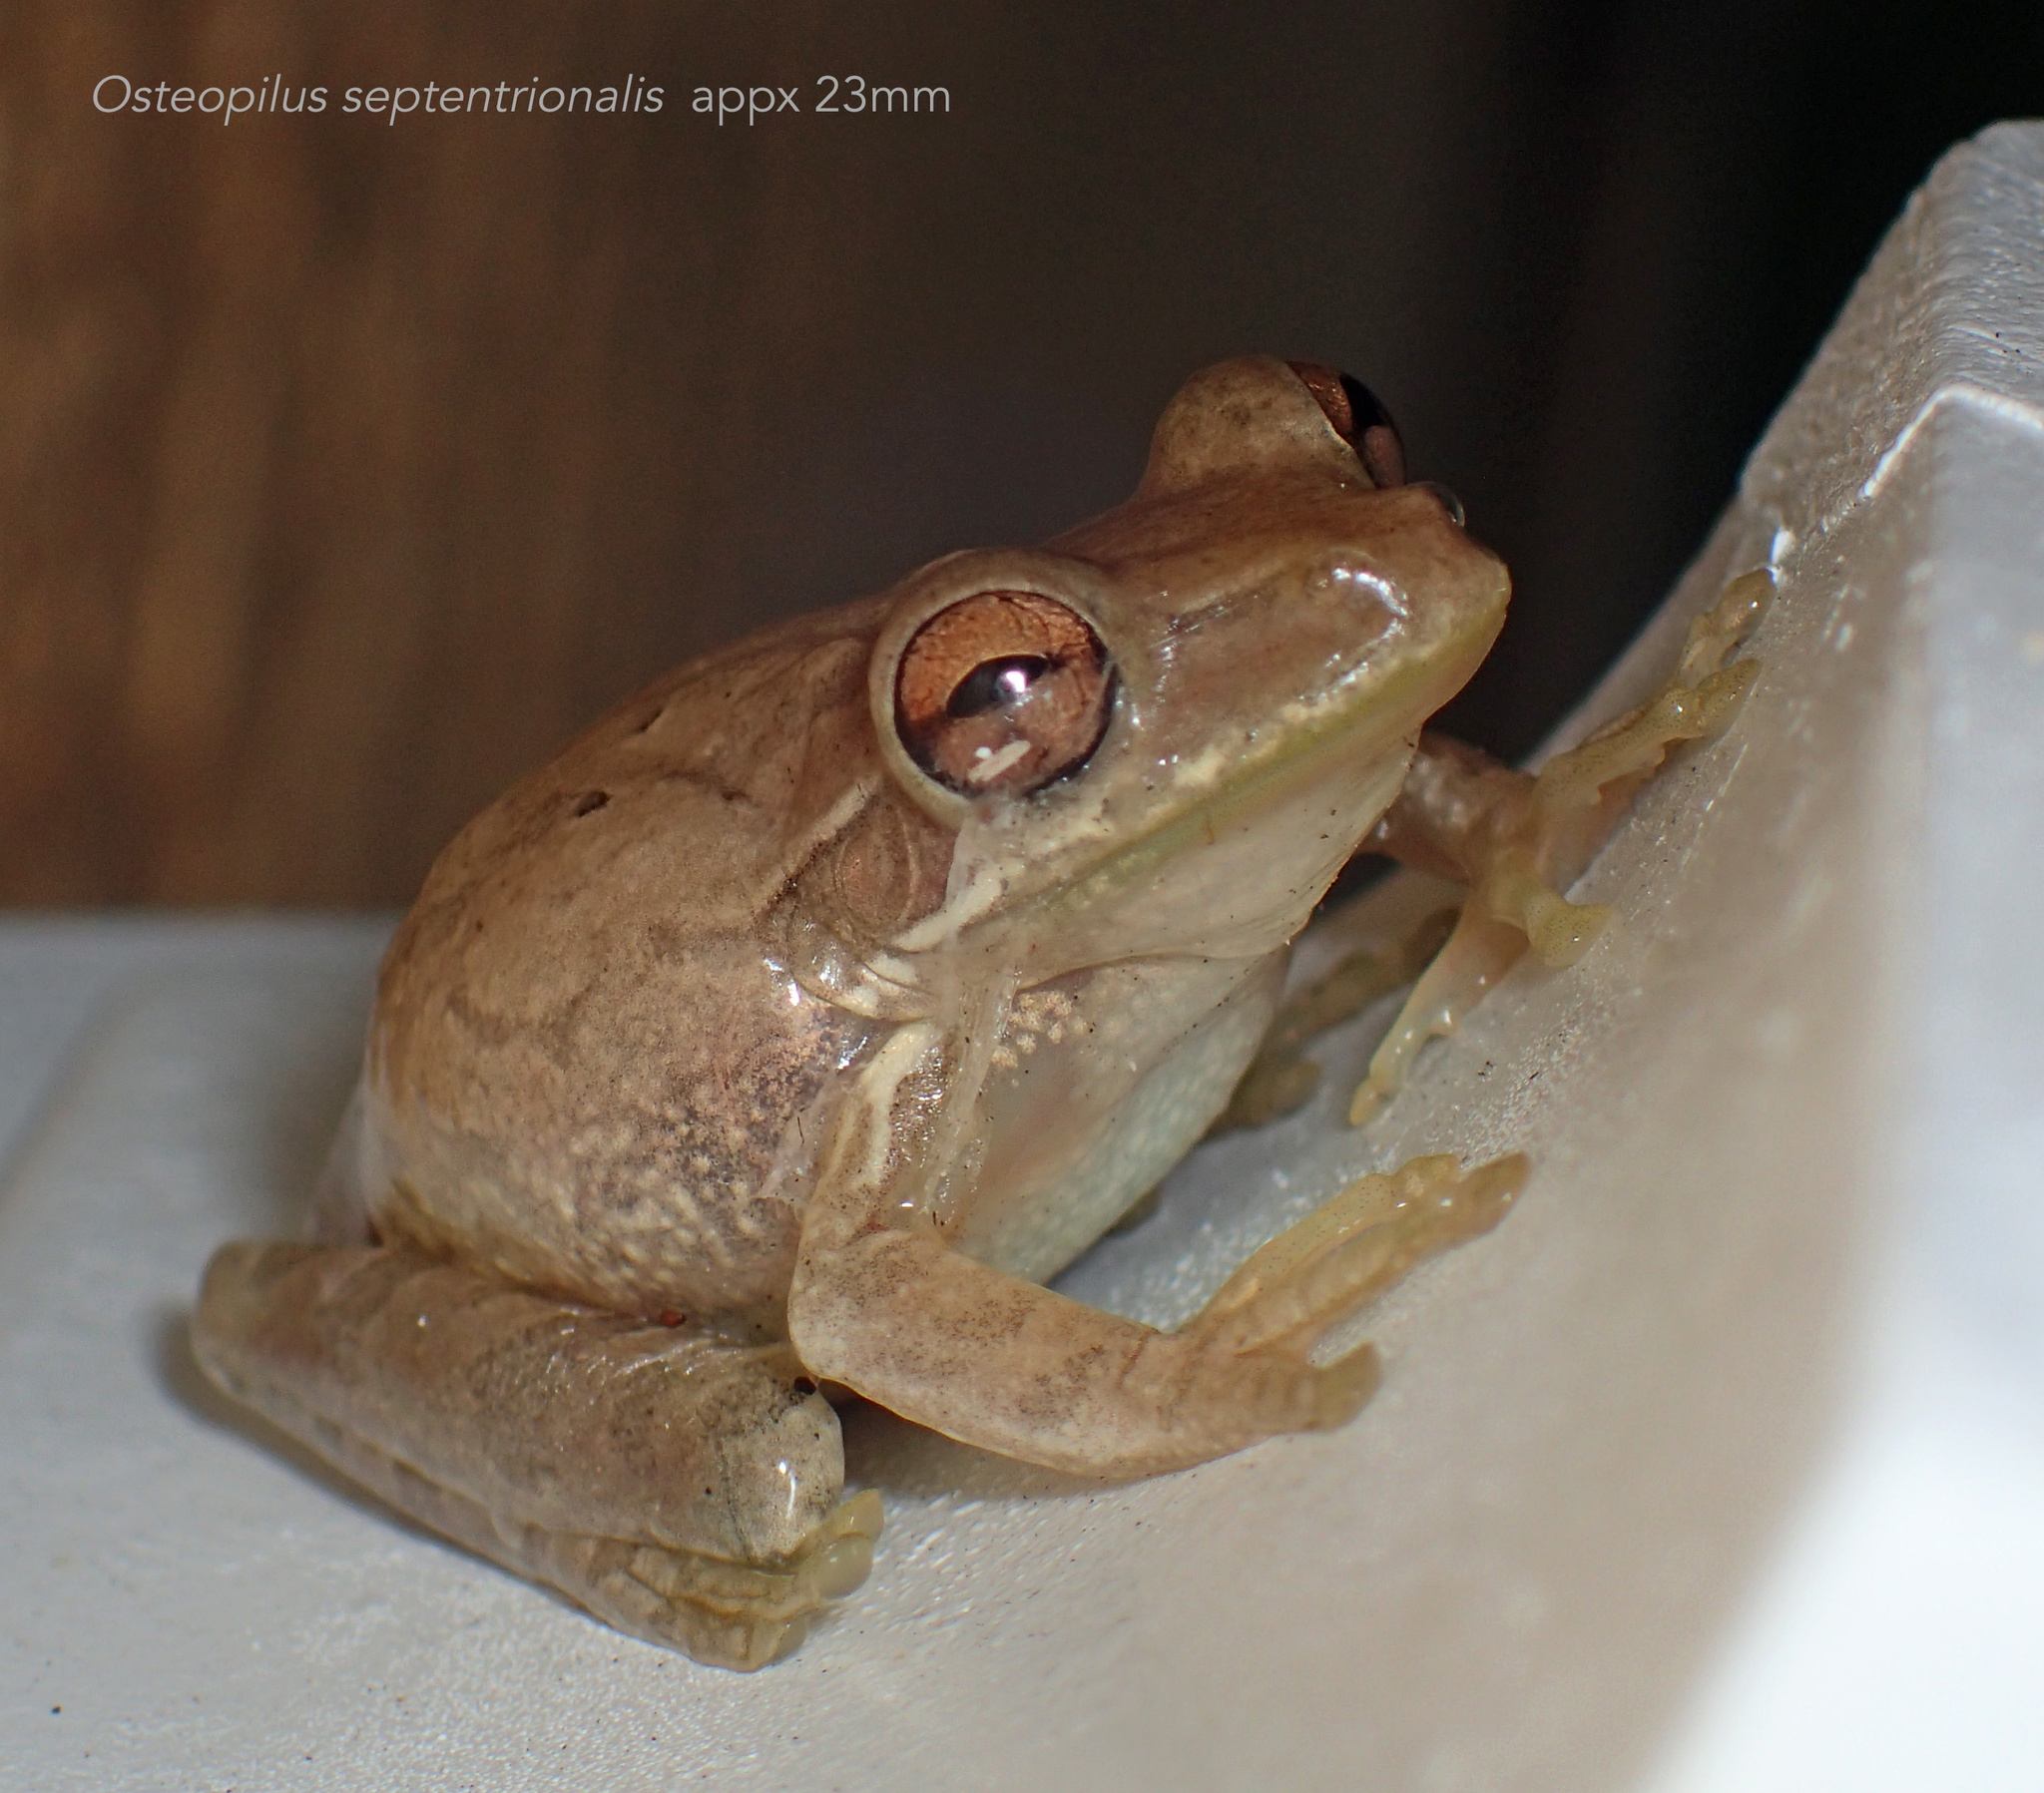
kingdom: Animalia
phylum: Chordata
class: Amphibia
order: Anura
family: Hylidae
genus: Osteopilus
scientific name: Osteopilus septentrionalis
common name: Cuban treefrog
